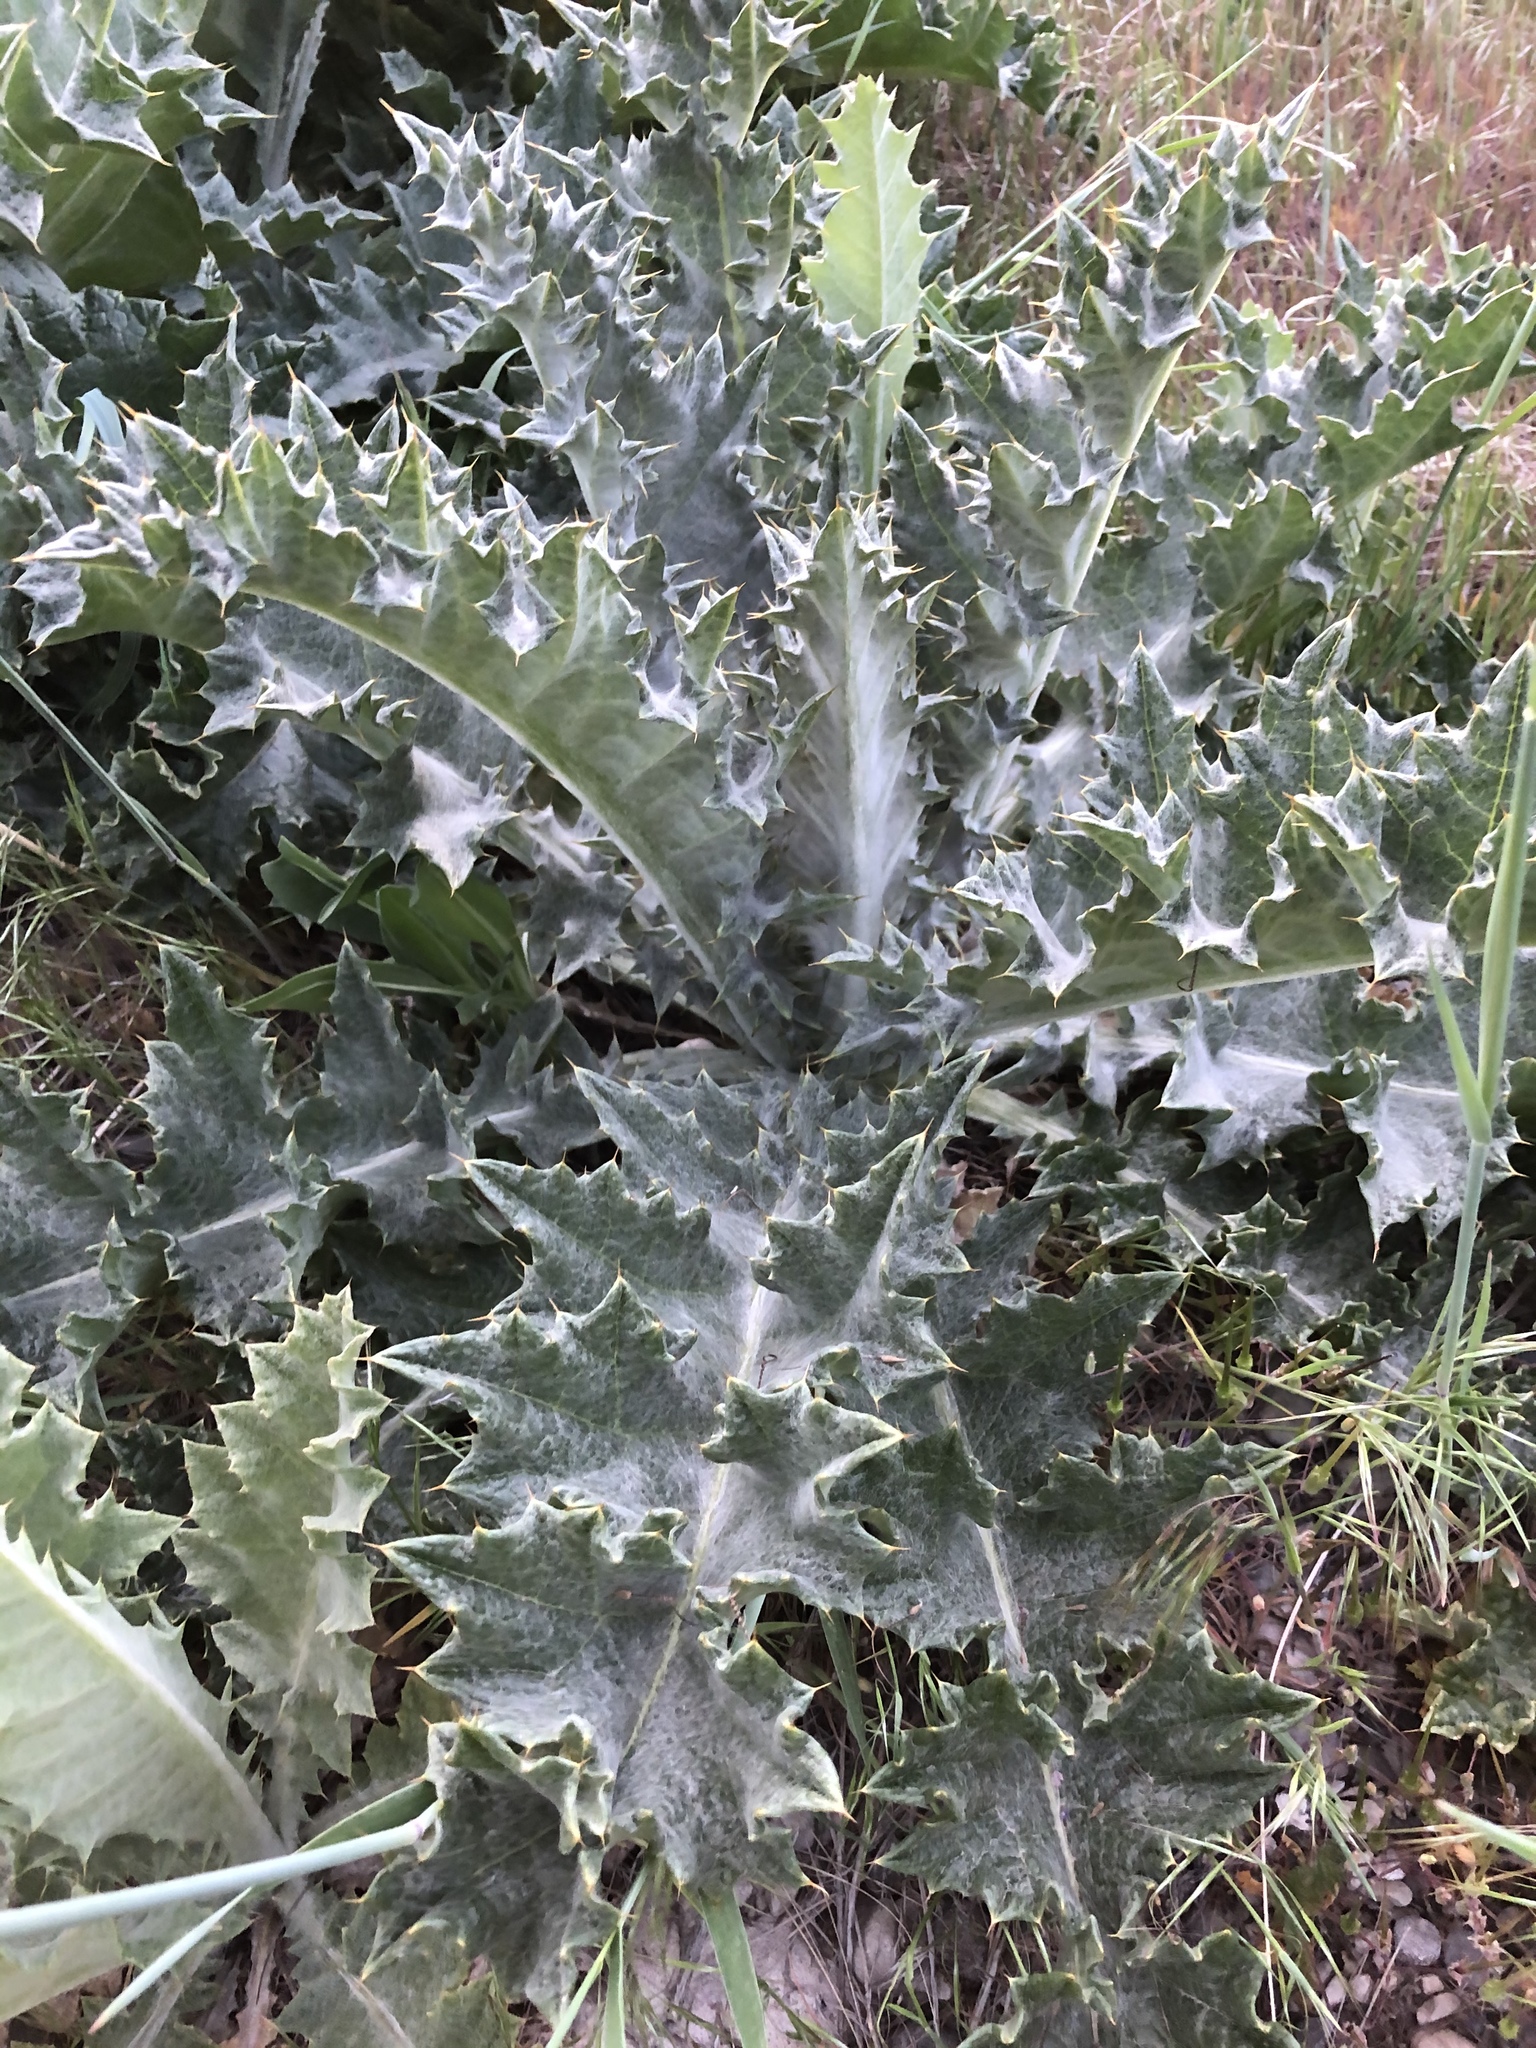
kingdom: Plantae
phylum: Tracheophyta
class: Magnoliopsida
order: Asterales
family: Asteraceae
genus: Onopordum
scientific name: Onopordum acanthium
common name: Scotch thistle
